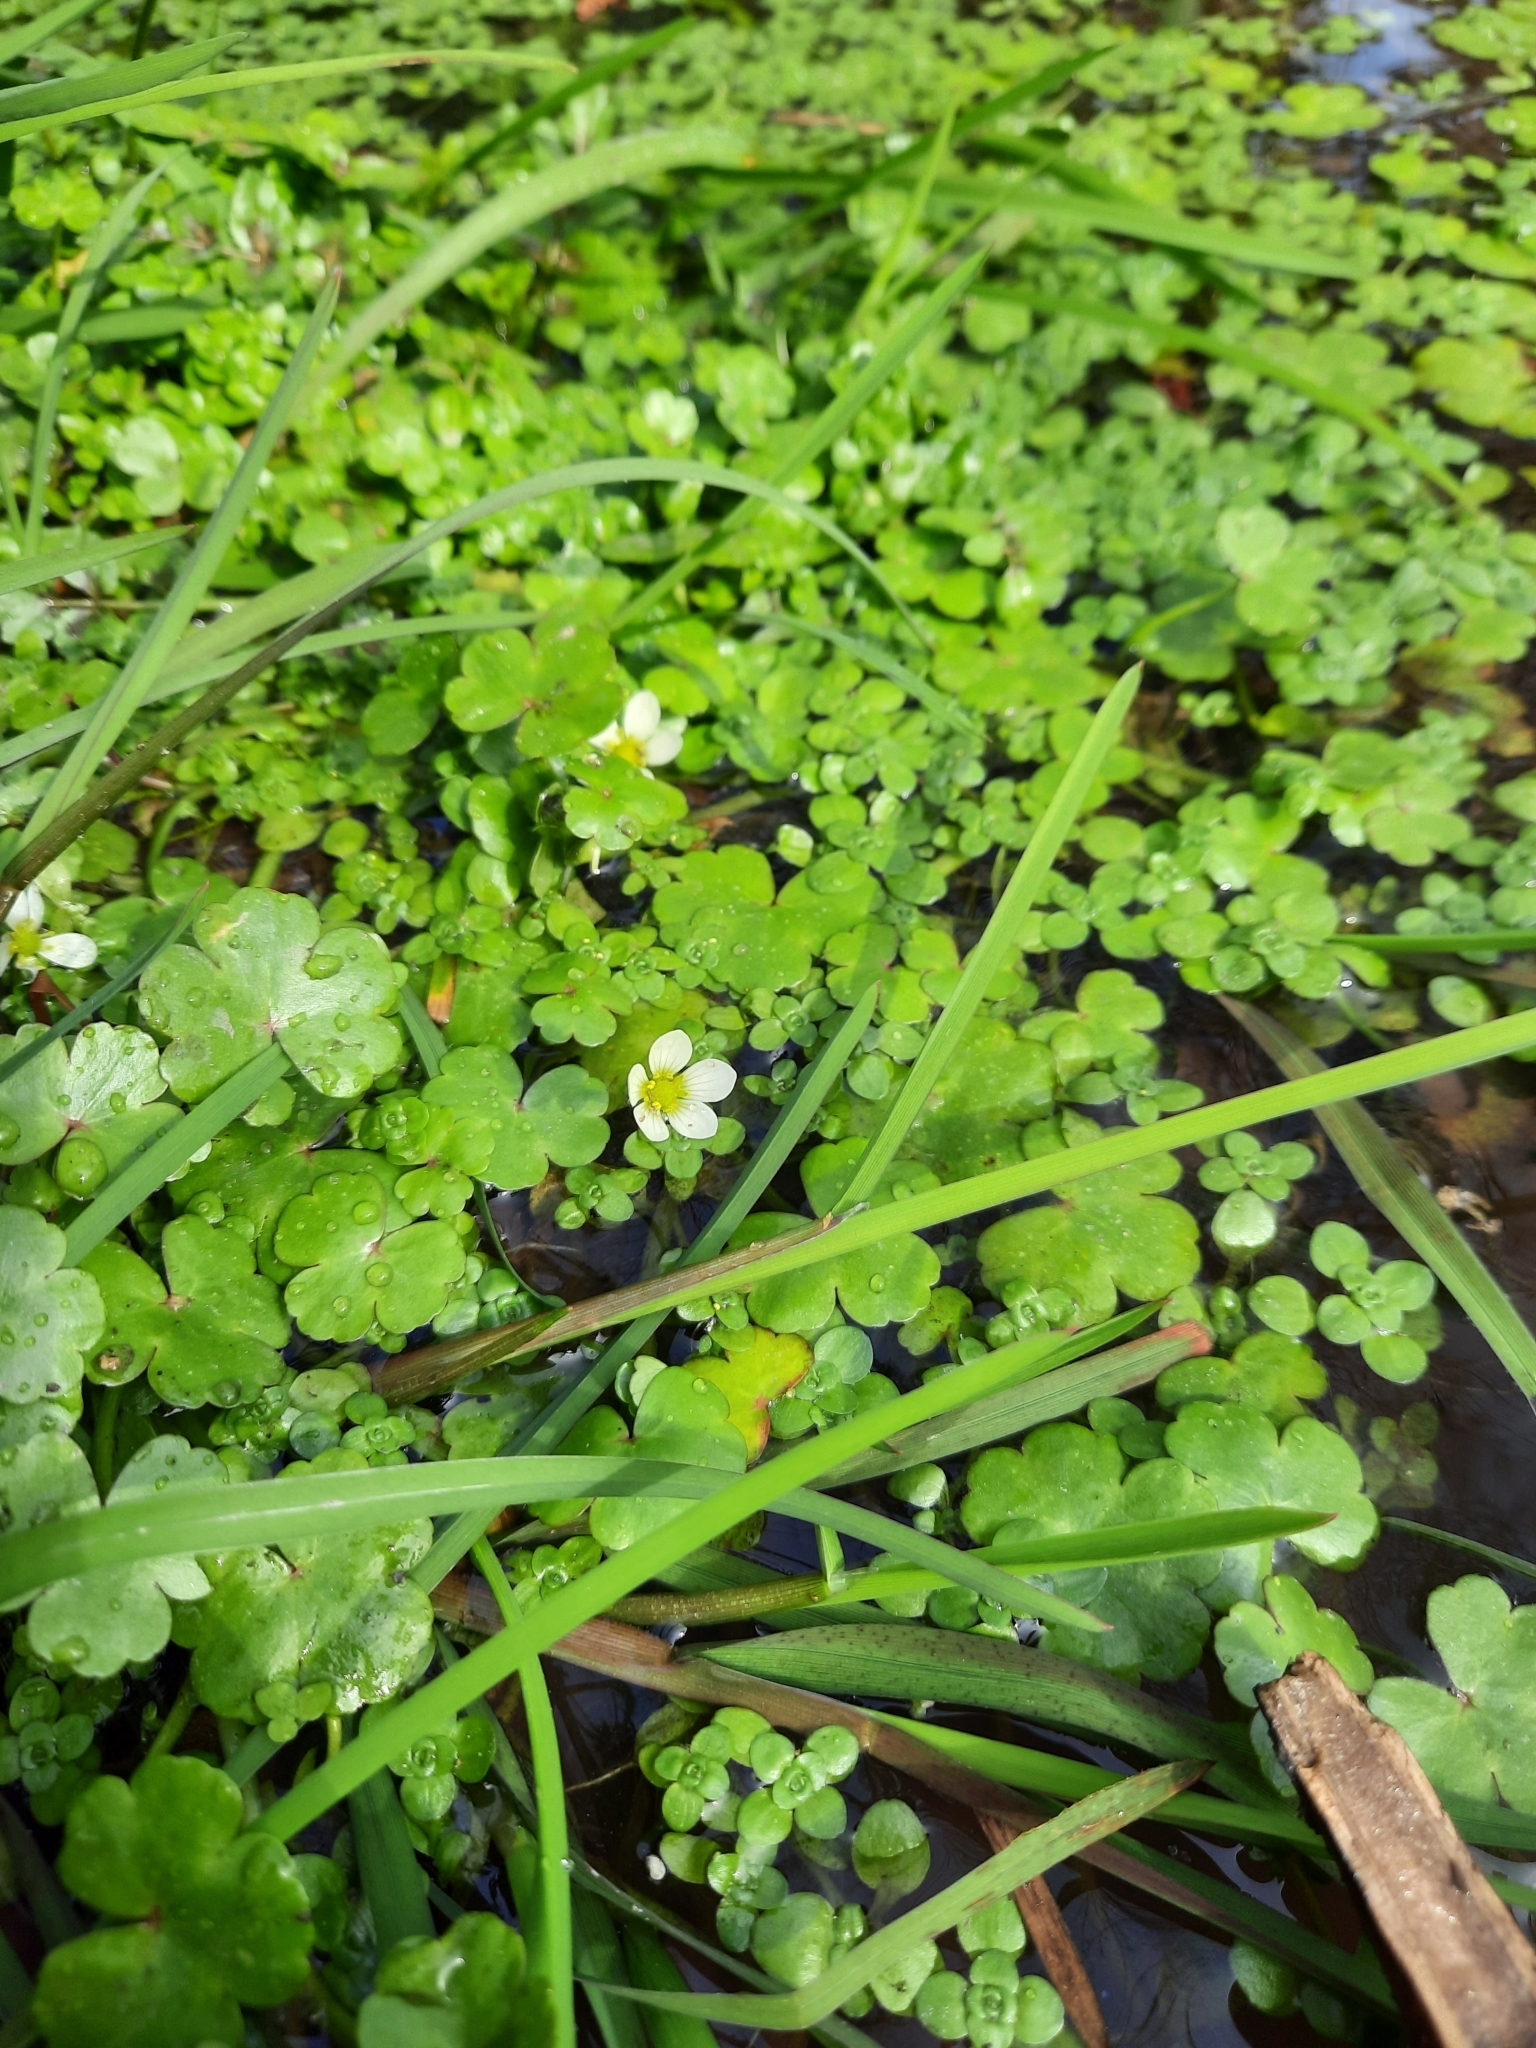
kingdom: Plantae
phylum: Tracheophyta
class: Magnoliopsida
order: Ranunculales
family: Ranunculaceae
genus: Ranunculus
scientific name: Ranunculus omiophyllus
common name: Round-leaved crowfoot
